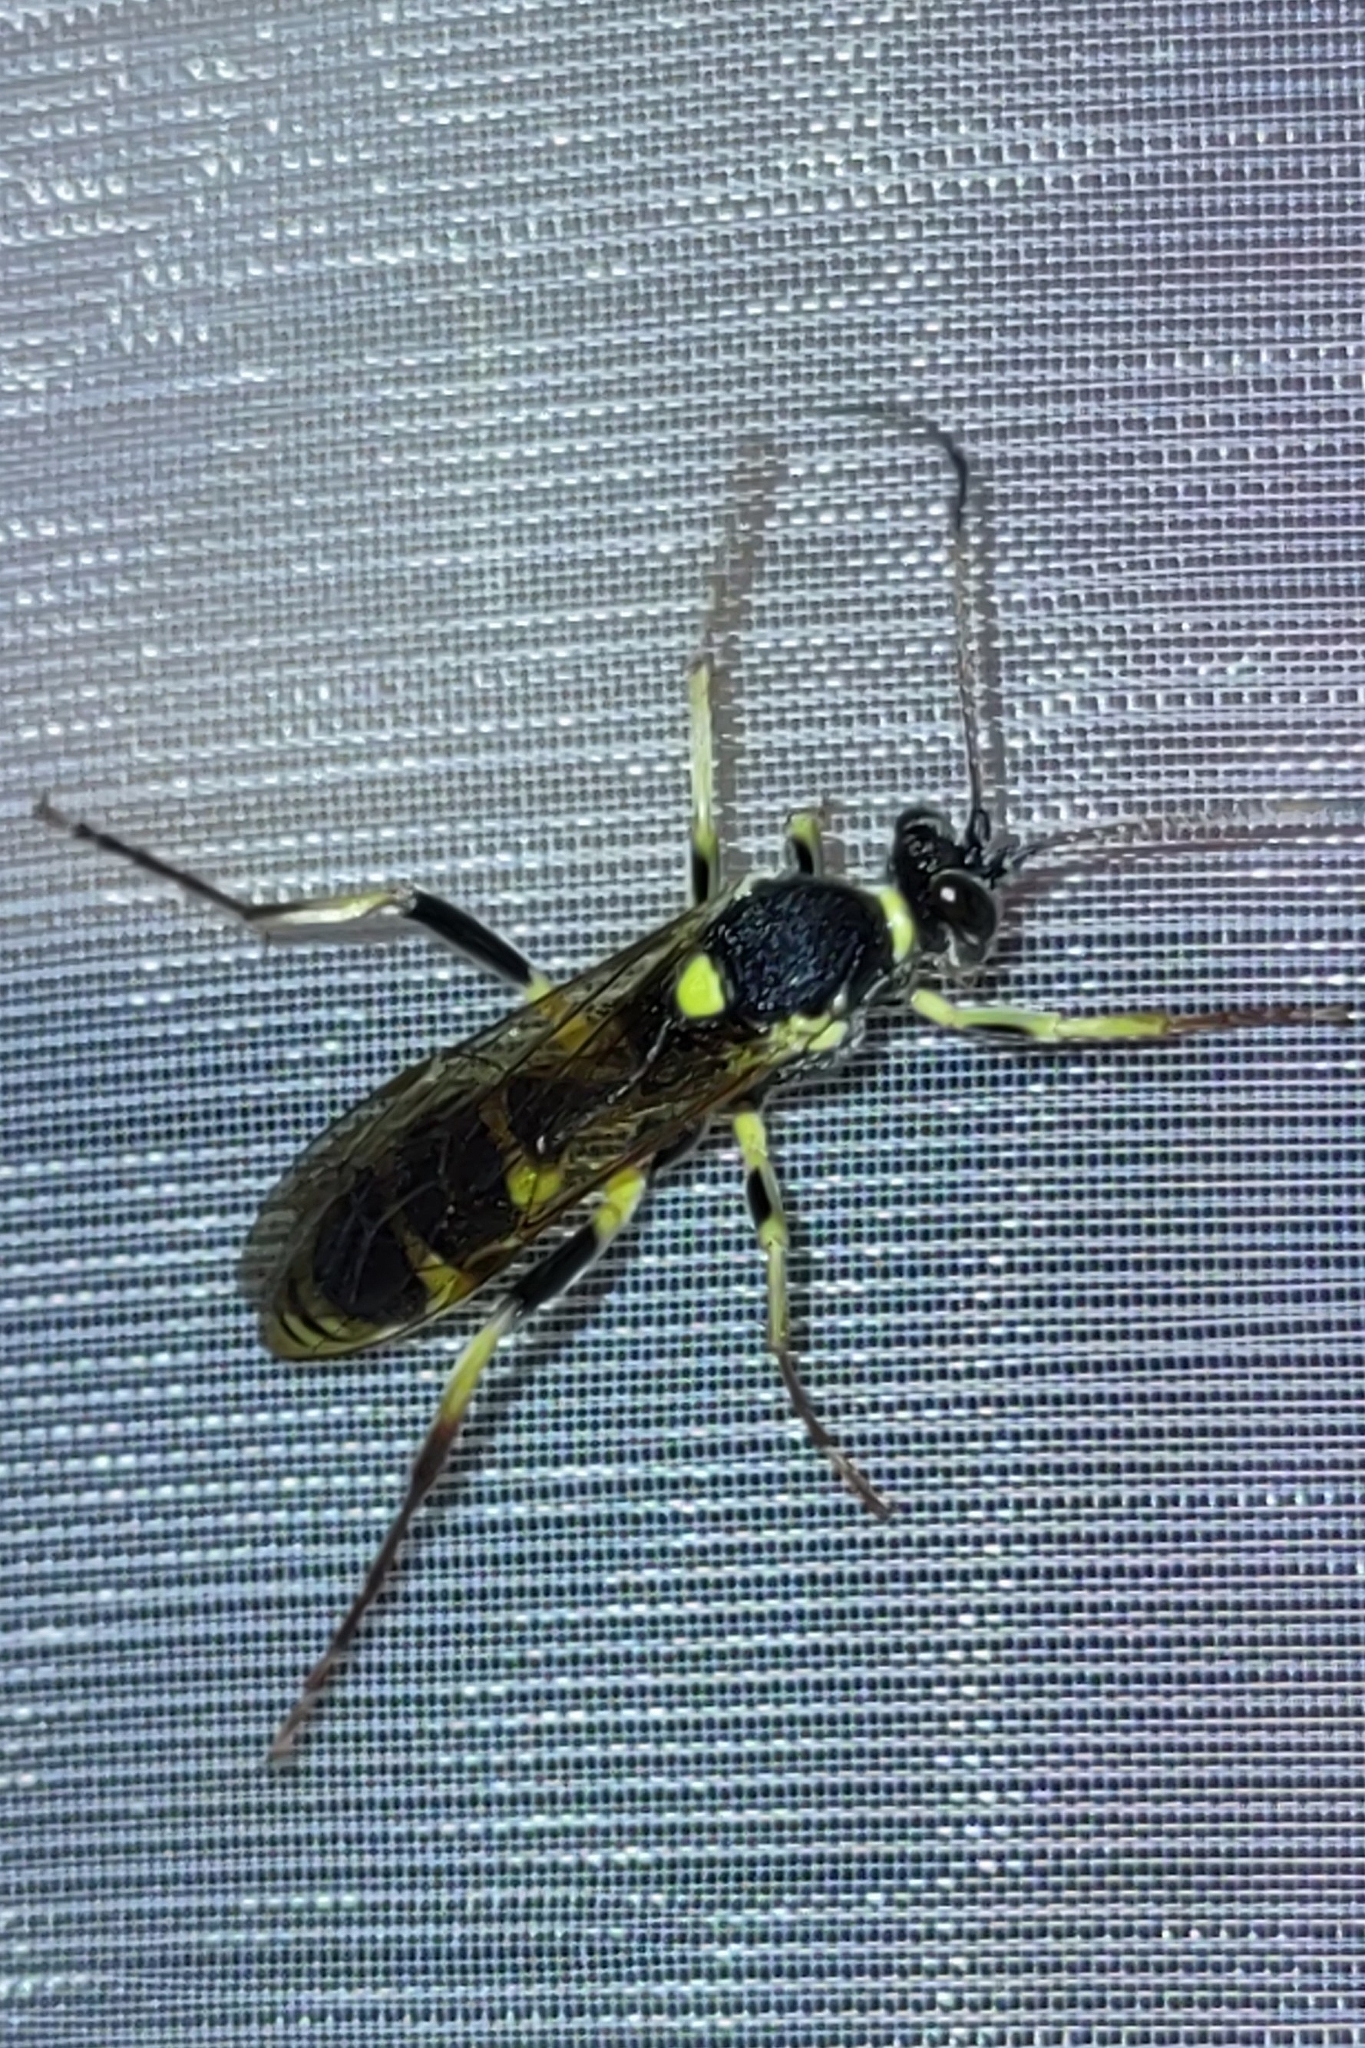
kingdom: Animalia
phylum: Arthropoda
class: Insecta
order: Hymenoptera
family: Ichneumonidae
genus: Amblyteles
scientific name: Amblyteles armatorius
